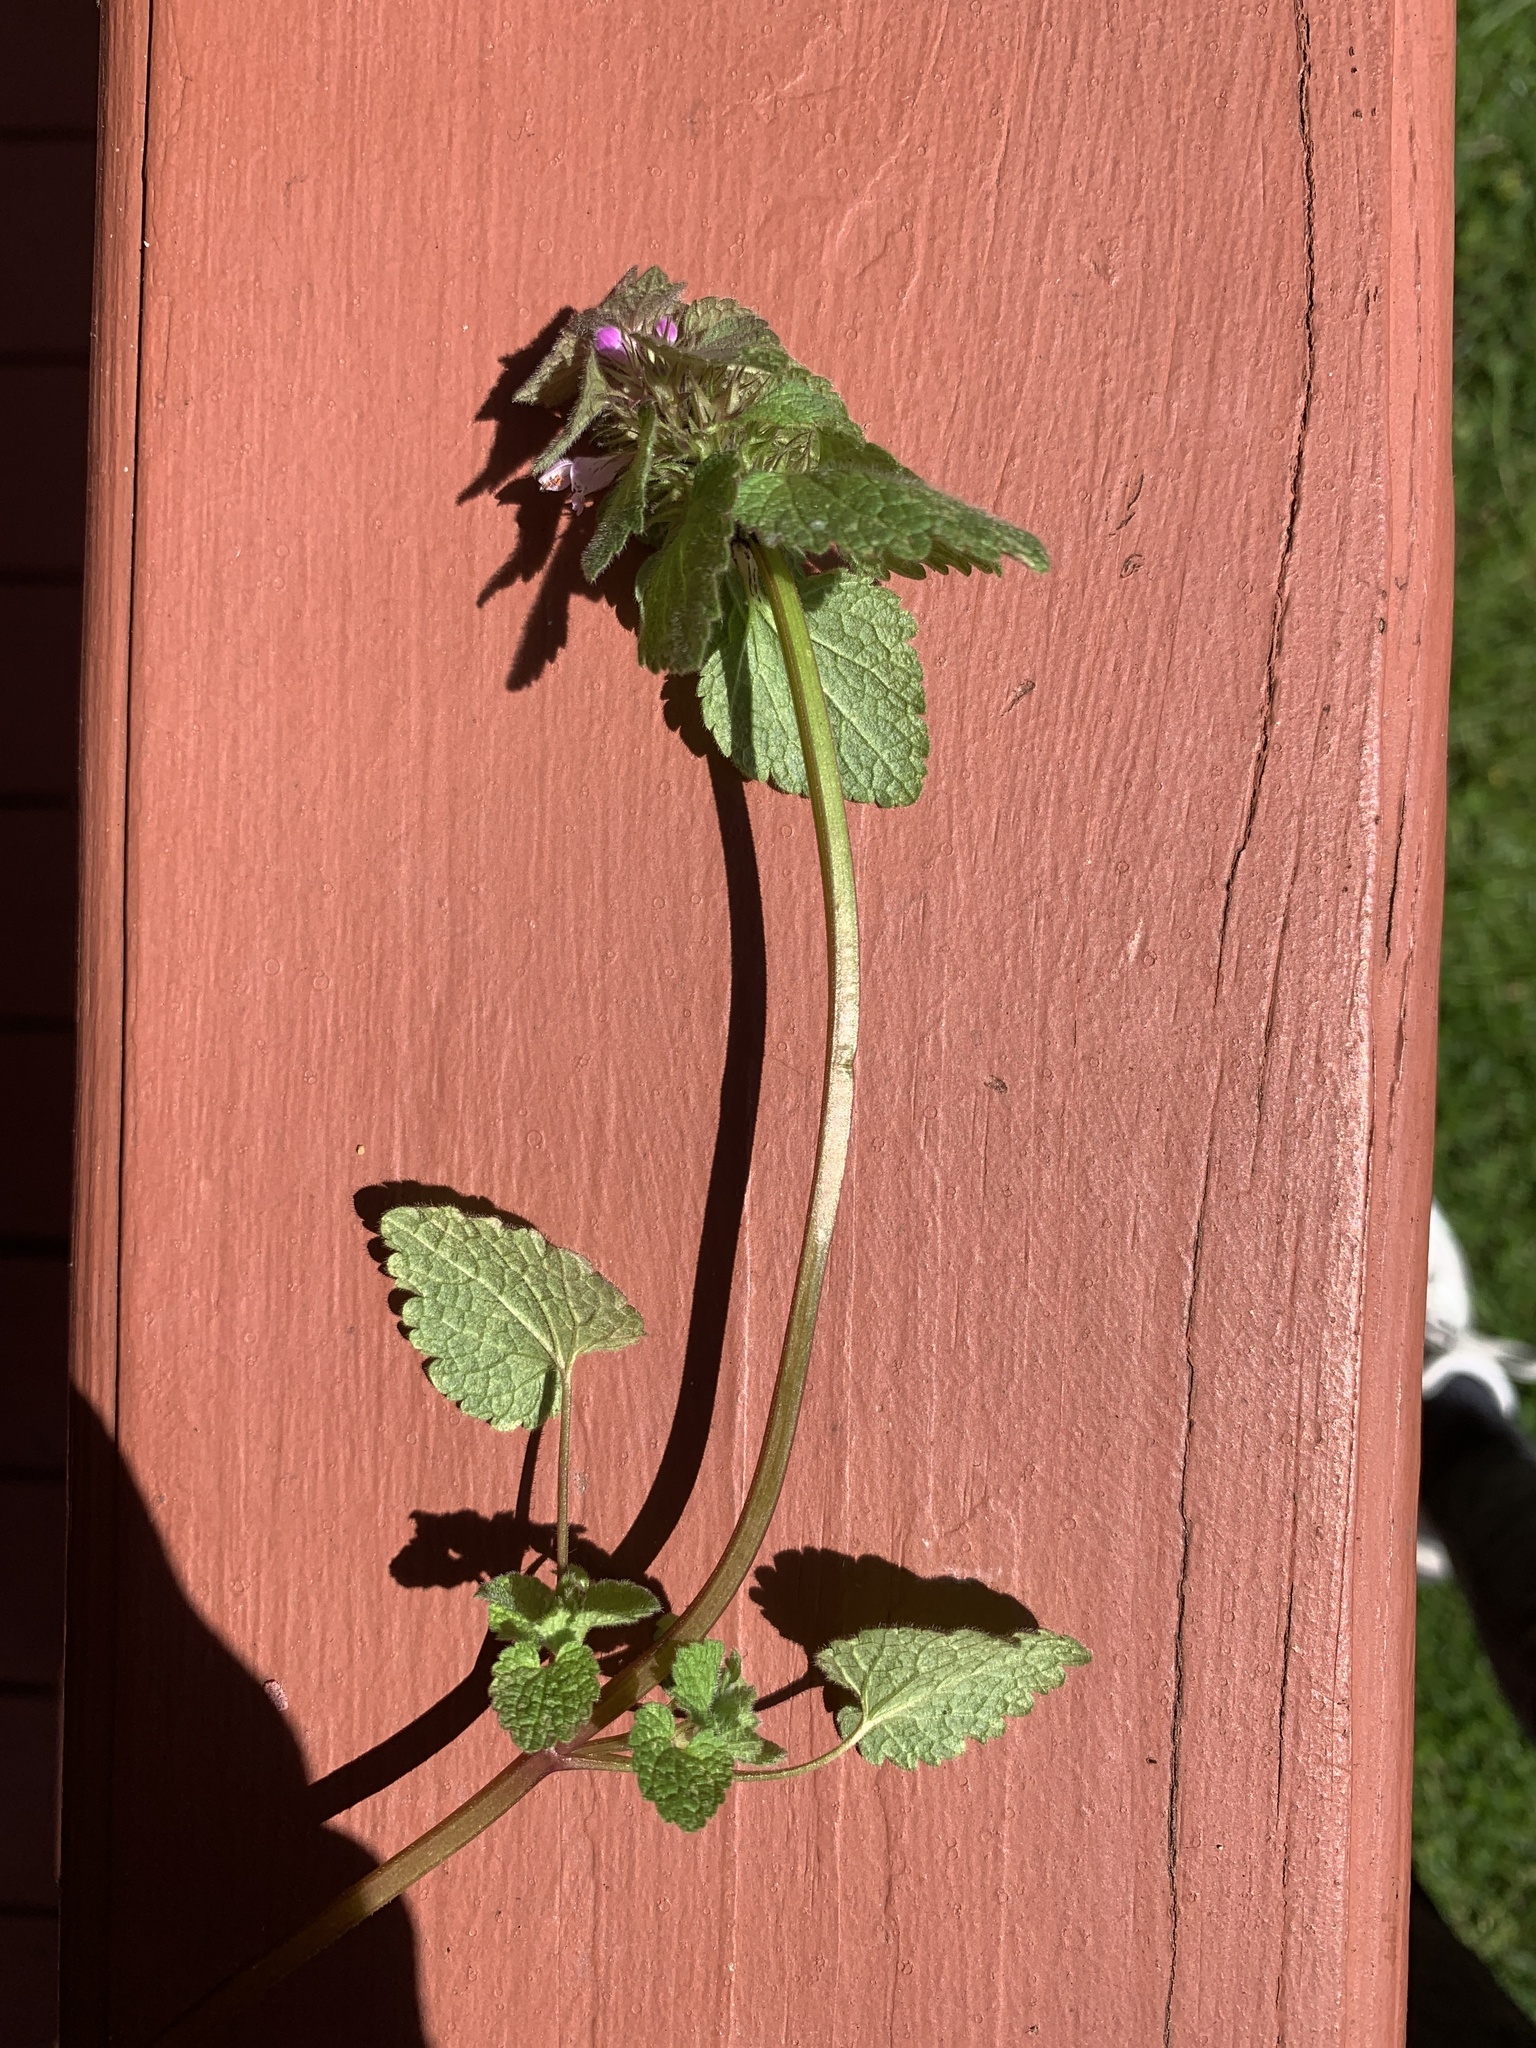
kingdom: Plantae
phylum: Tracheophyta
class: Magnoliopsida
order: Lamiales
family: Lamiaceae
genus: Lamium
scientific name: Lamium purpureum
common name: Red dead-nettle
